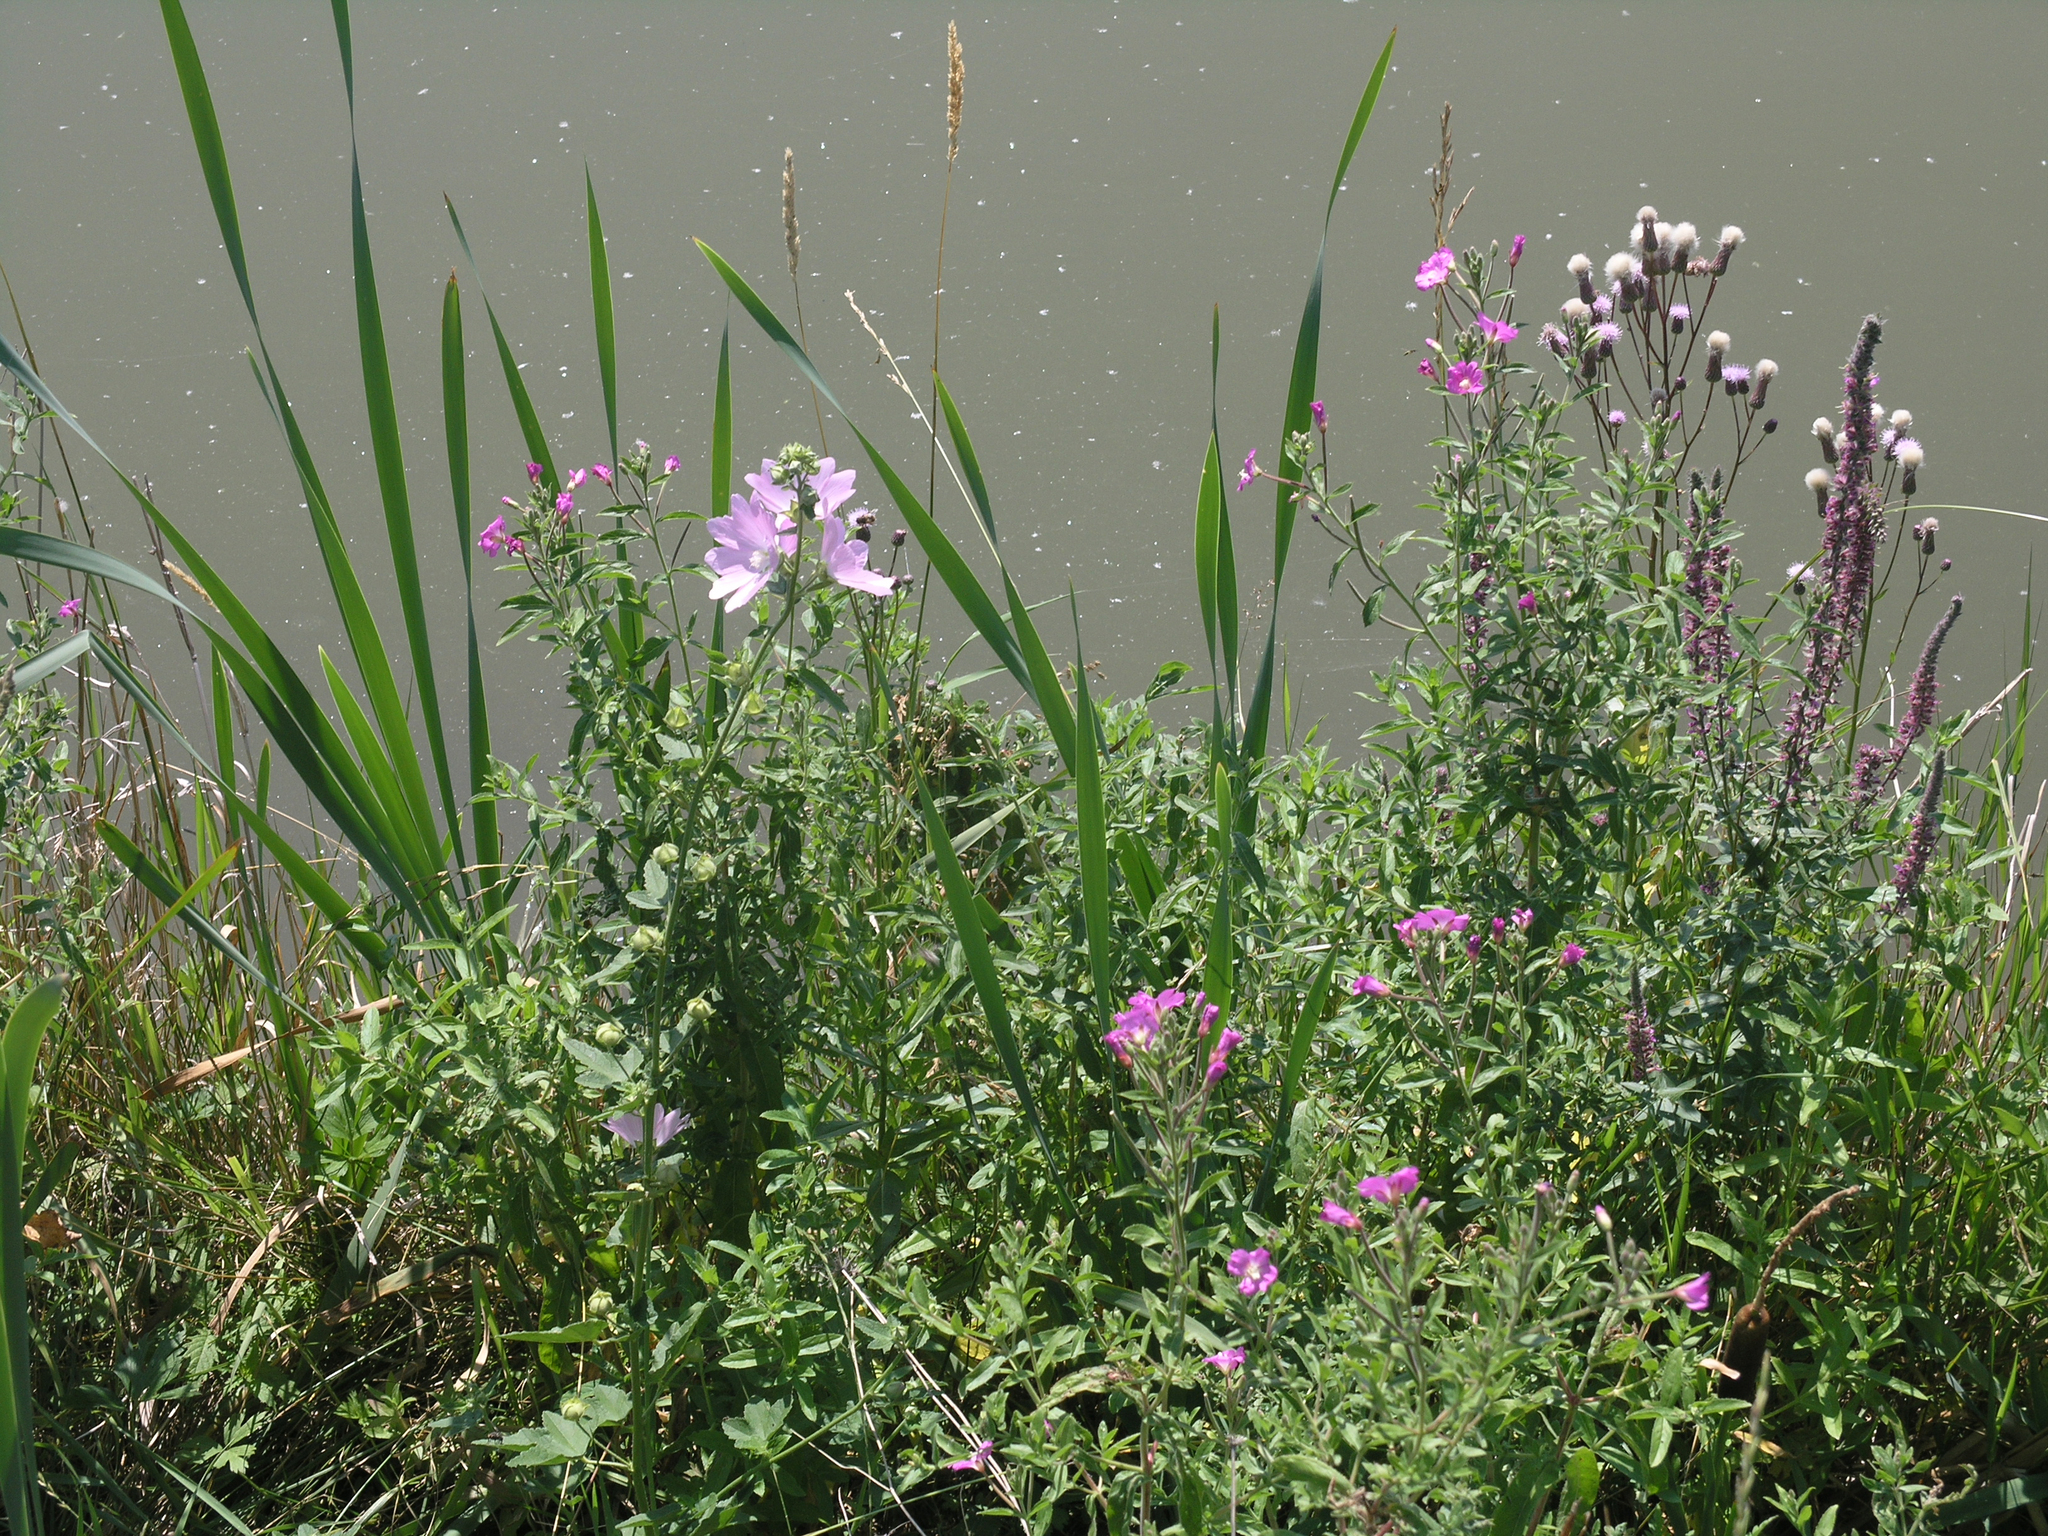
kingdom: Plantae
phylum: Tracheophyta
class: Magnoliopsida
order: Malvales
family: Malvaceae
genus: Malva
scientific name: Malva thuringiaca
